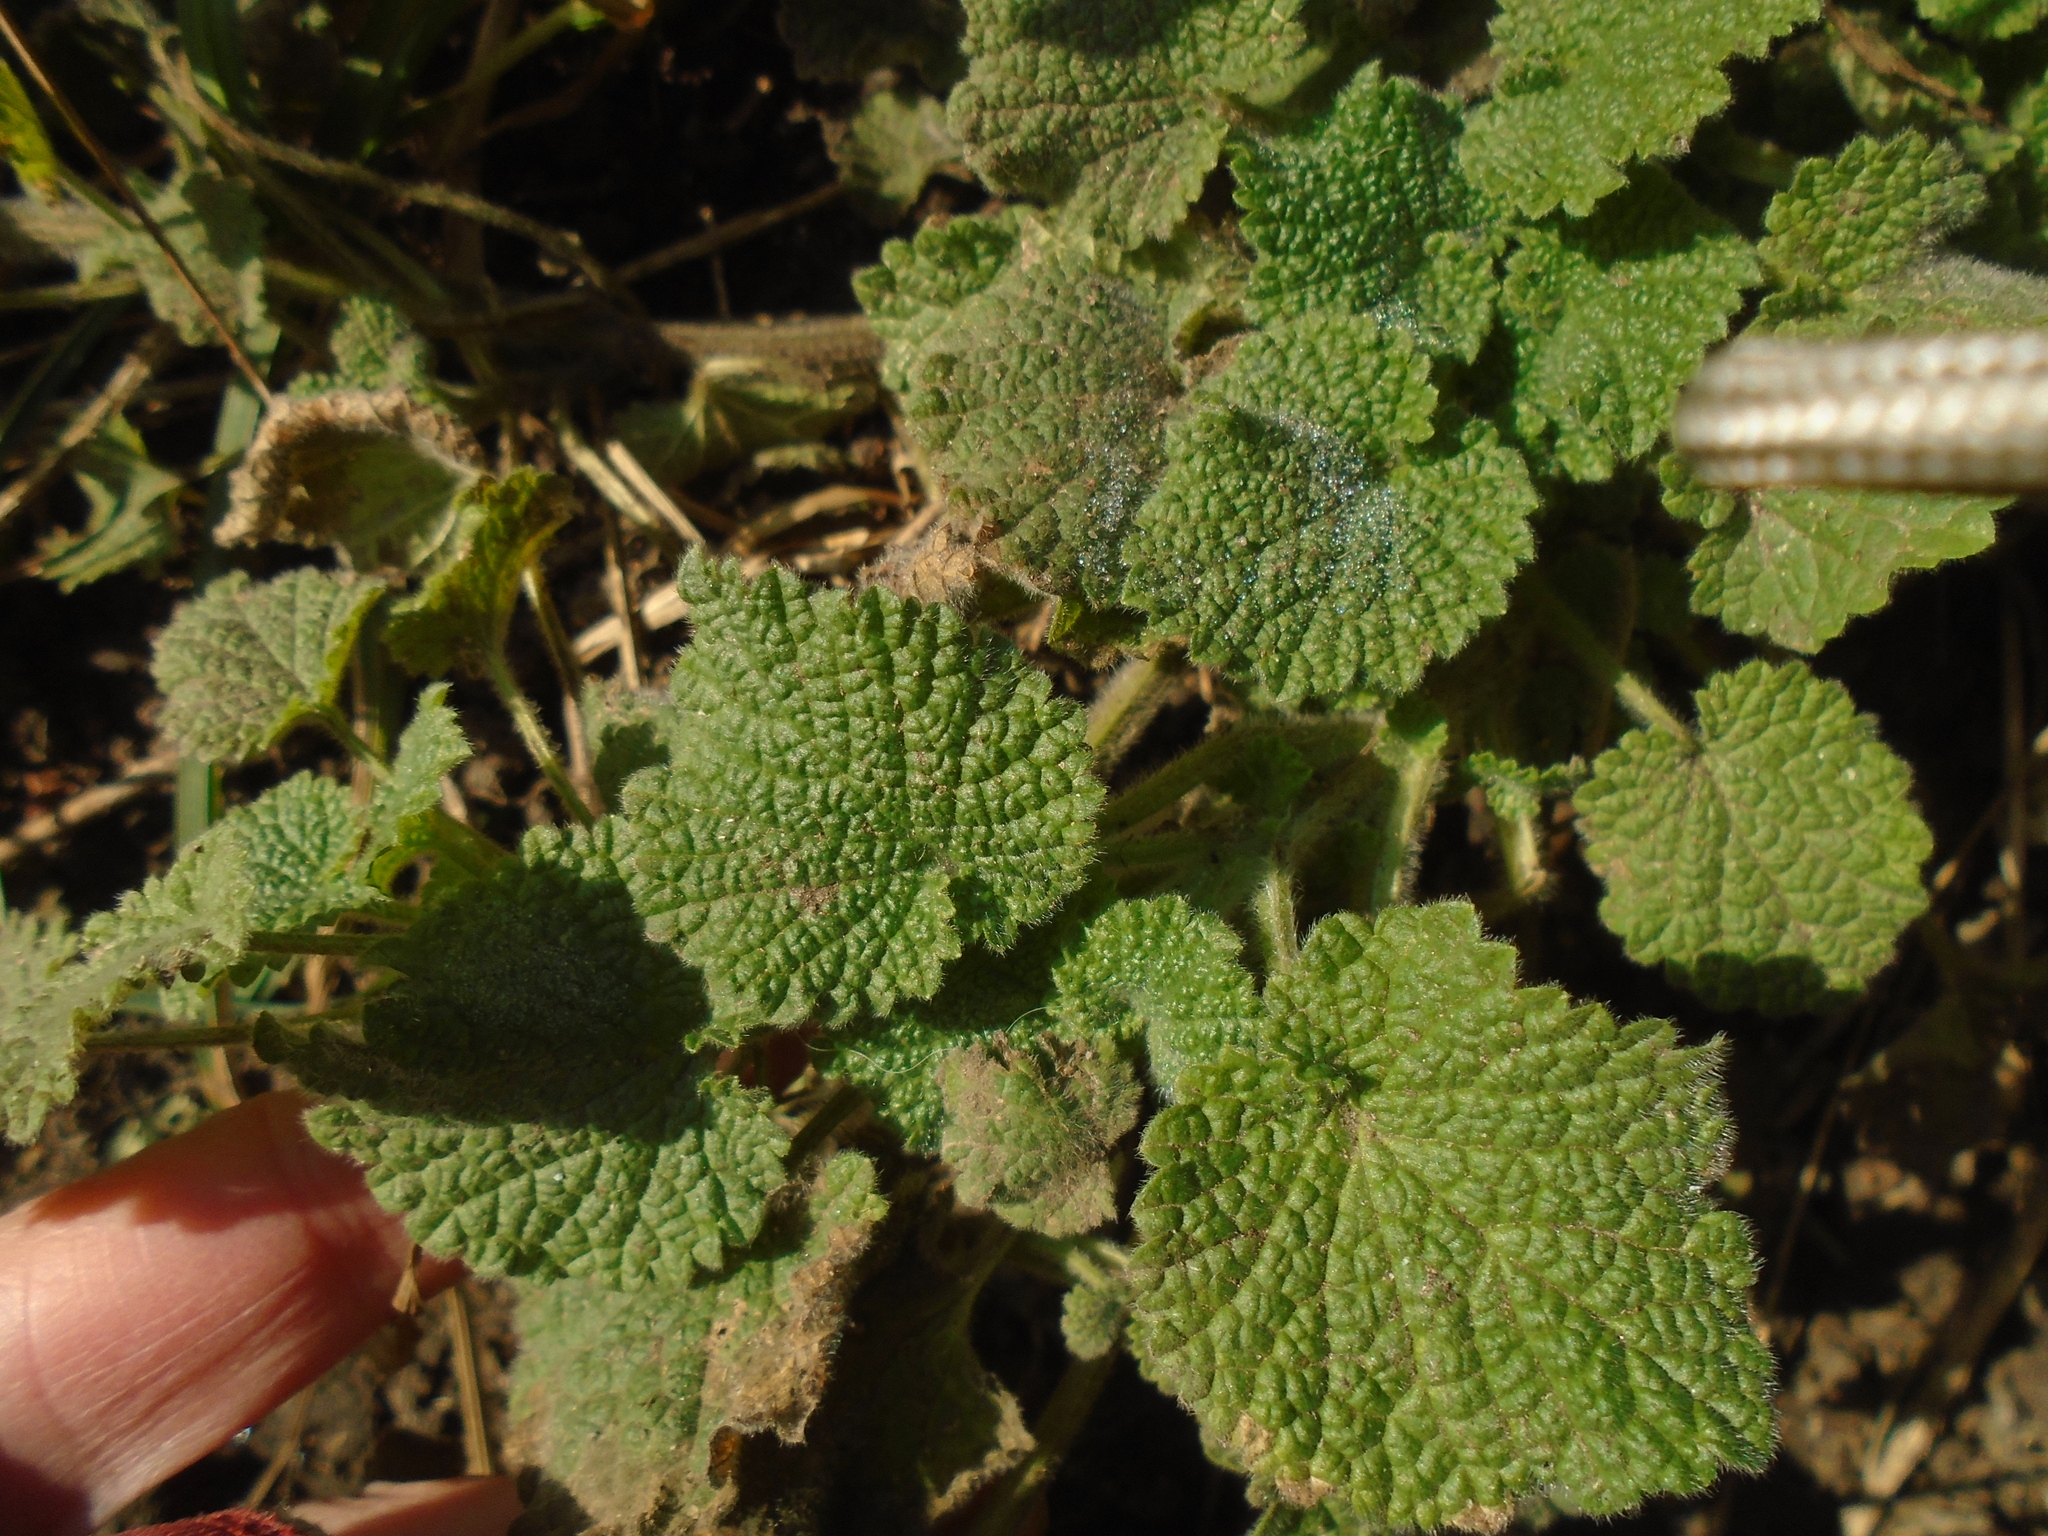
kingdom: Plantae
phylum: Tracheophyta
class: Magnoliopsida
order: Lamiales
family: Lamiaceae
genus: Ballota
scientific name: Ballota nigra
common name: Black horehound
